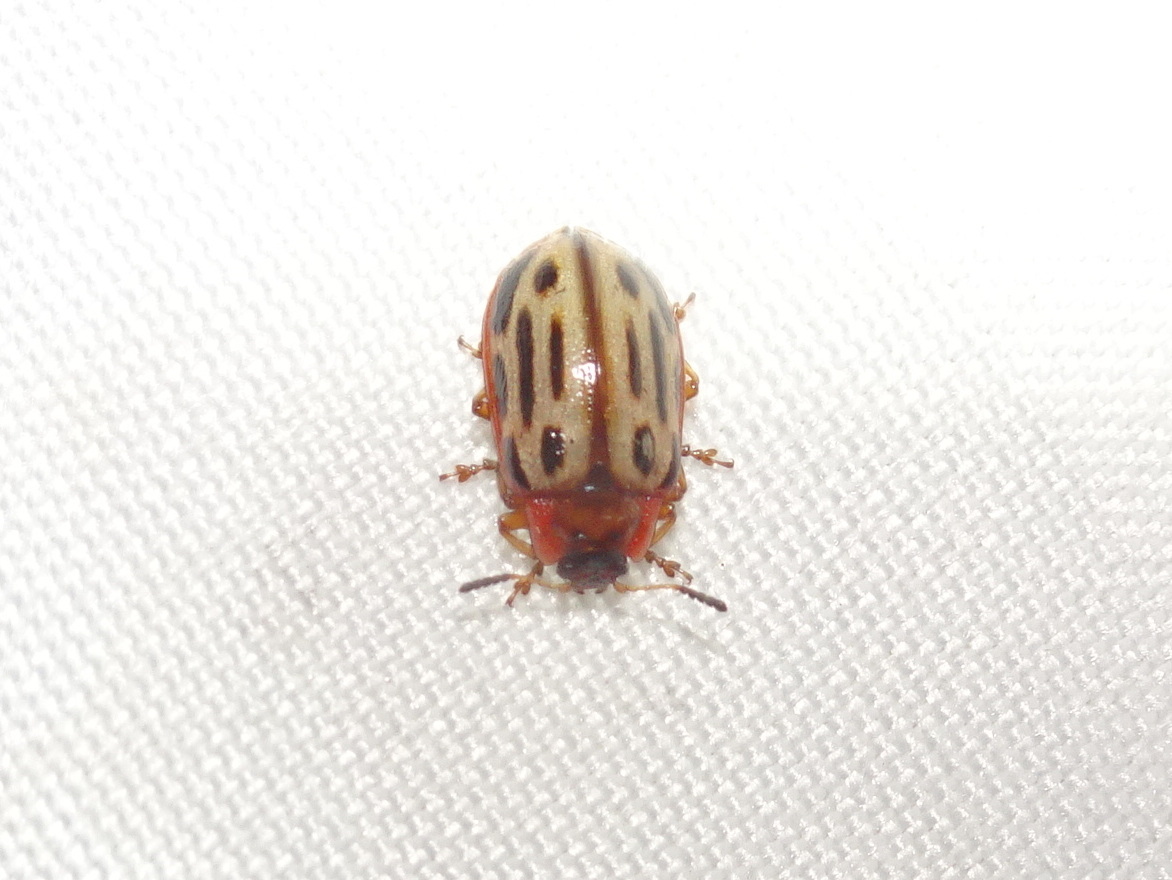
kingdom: Animalia
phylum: Arthropoda
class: Insecta
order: Coleoptera
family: Chrysomelidae
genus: Aethiopocassis
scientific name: Aethiopocassis scripta
